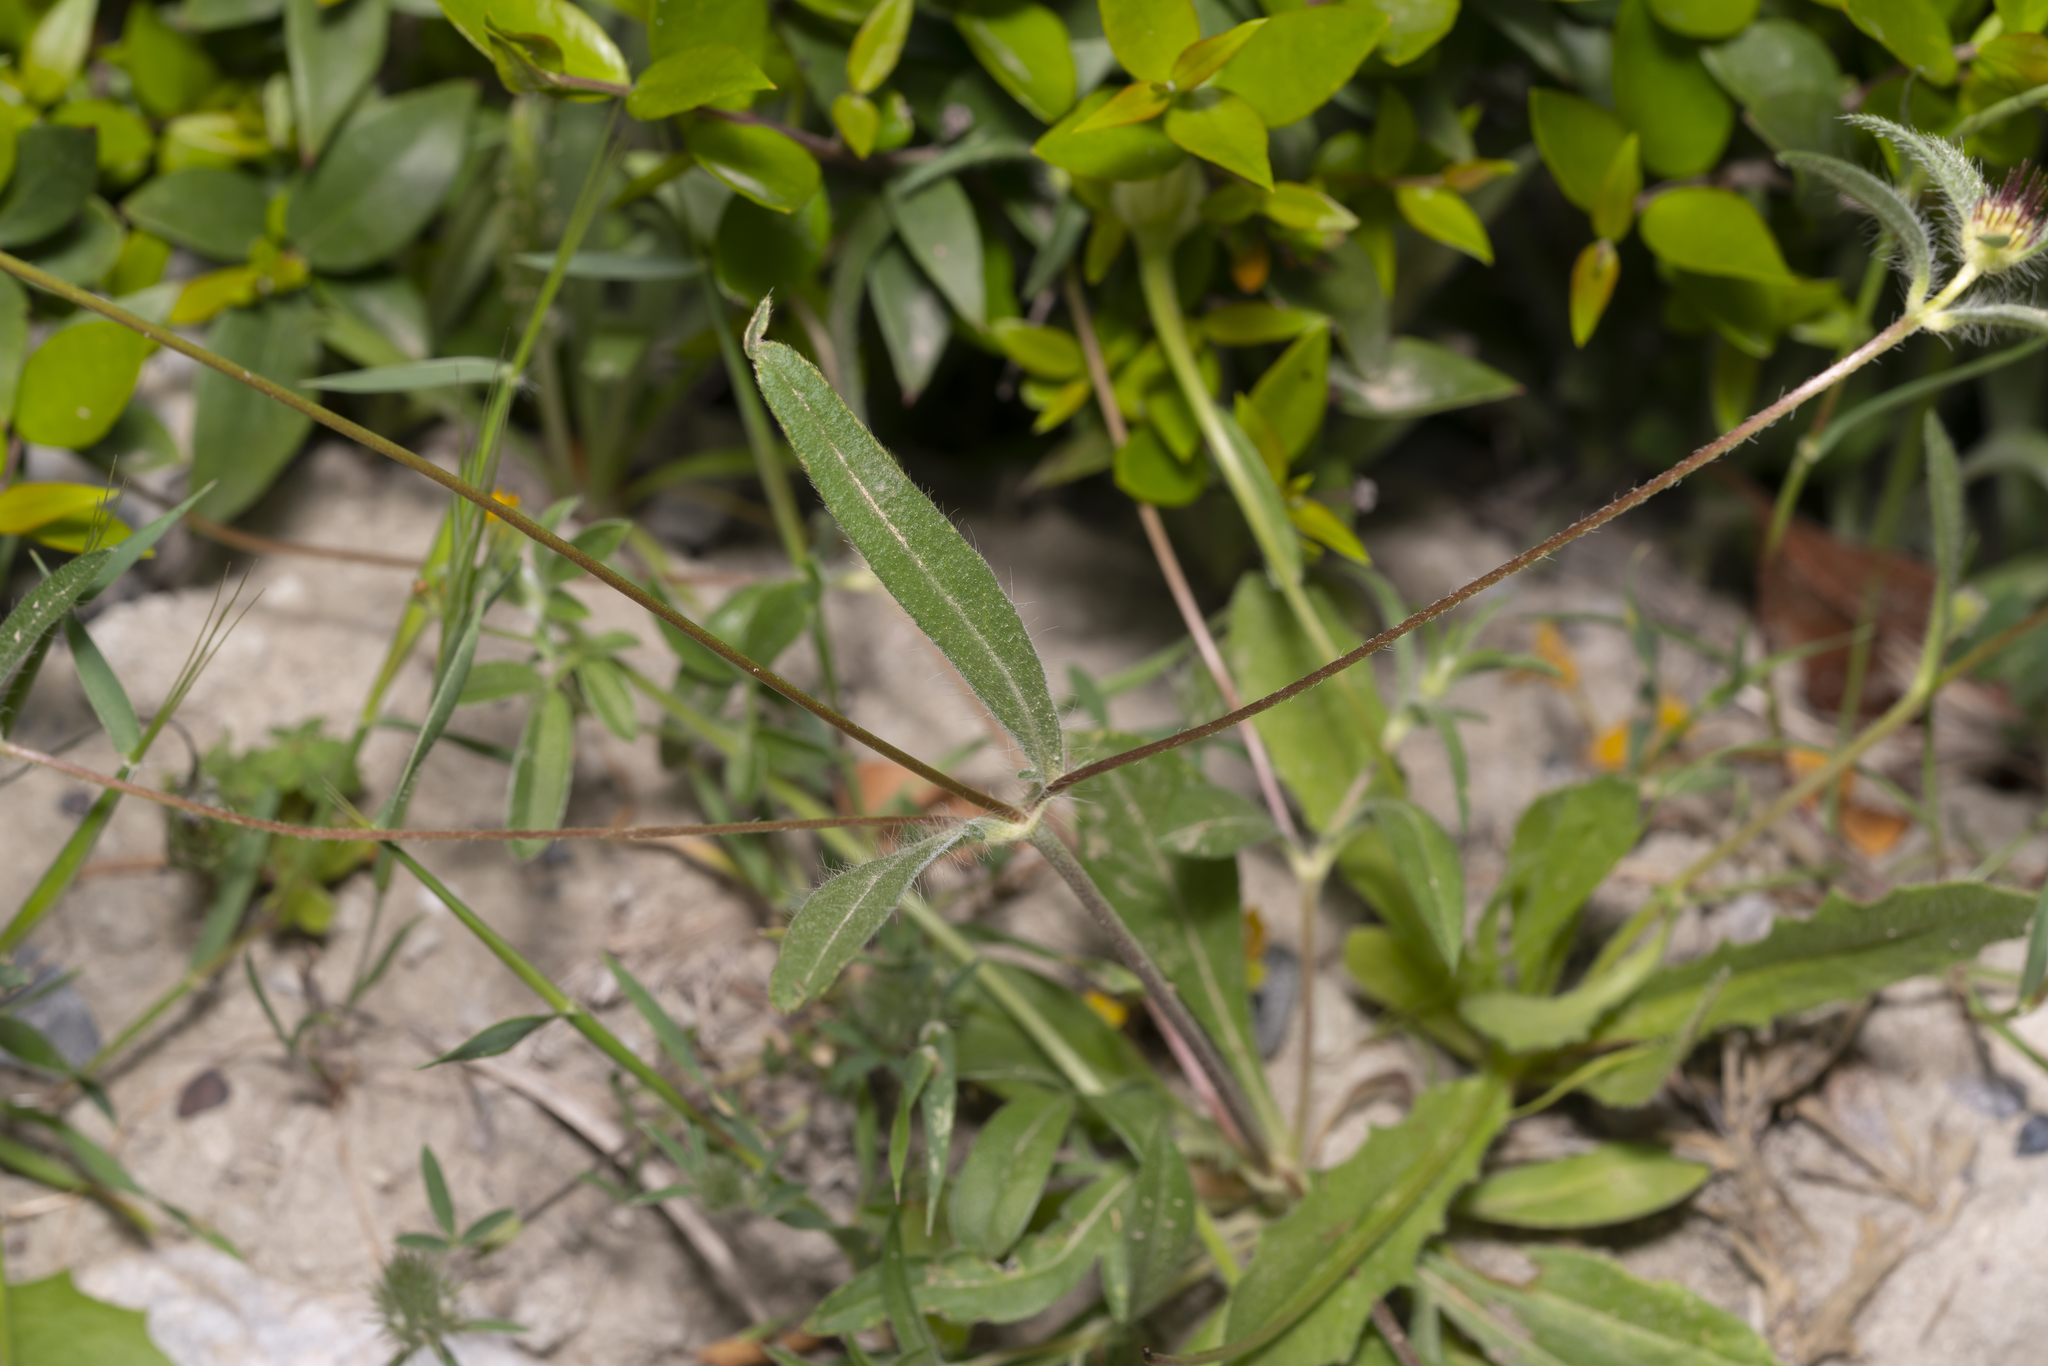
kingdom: Plantae
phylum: Tracheophyta
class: Magnoliopsida
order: Dipsacales
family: Caprifoliaceae
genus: Lomelosia
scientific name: Lomelosia divaricata
